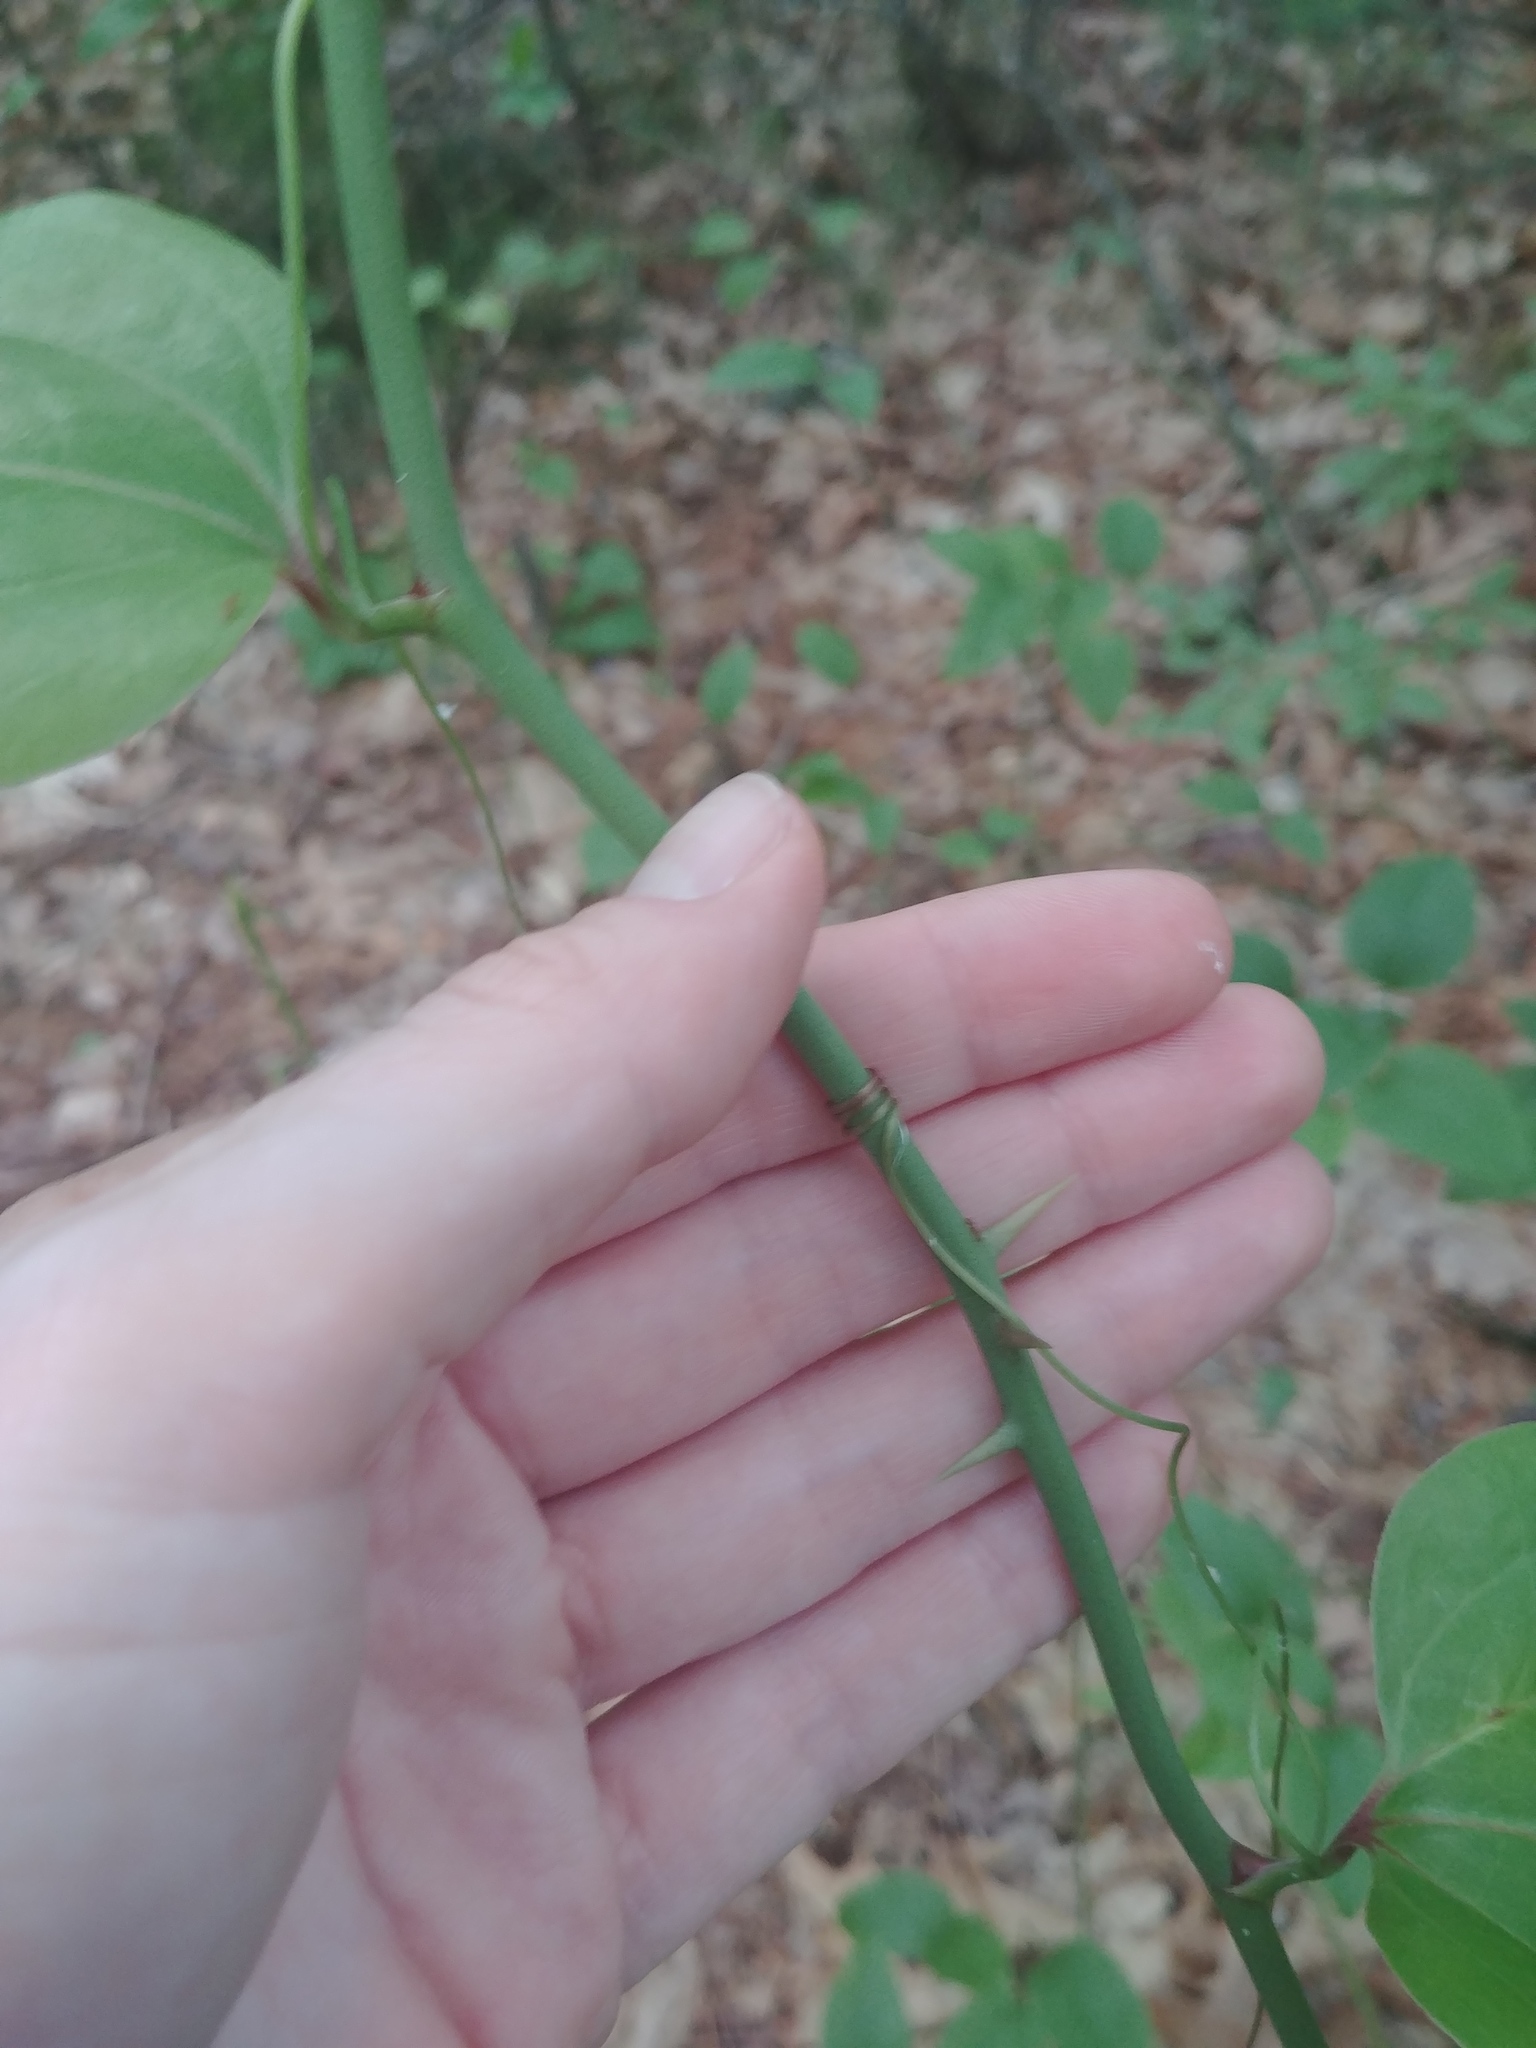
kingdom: Plantae
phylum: Tracheophyta
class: Liliopsida
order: Liliales
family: Smilacaceae
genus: Smilax
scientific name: Smilax rotundifolia
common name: Bullbriar
